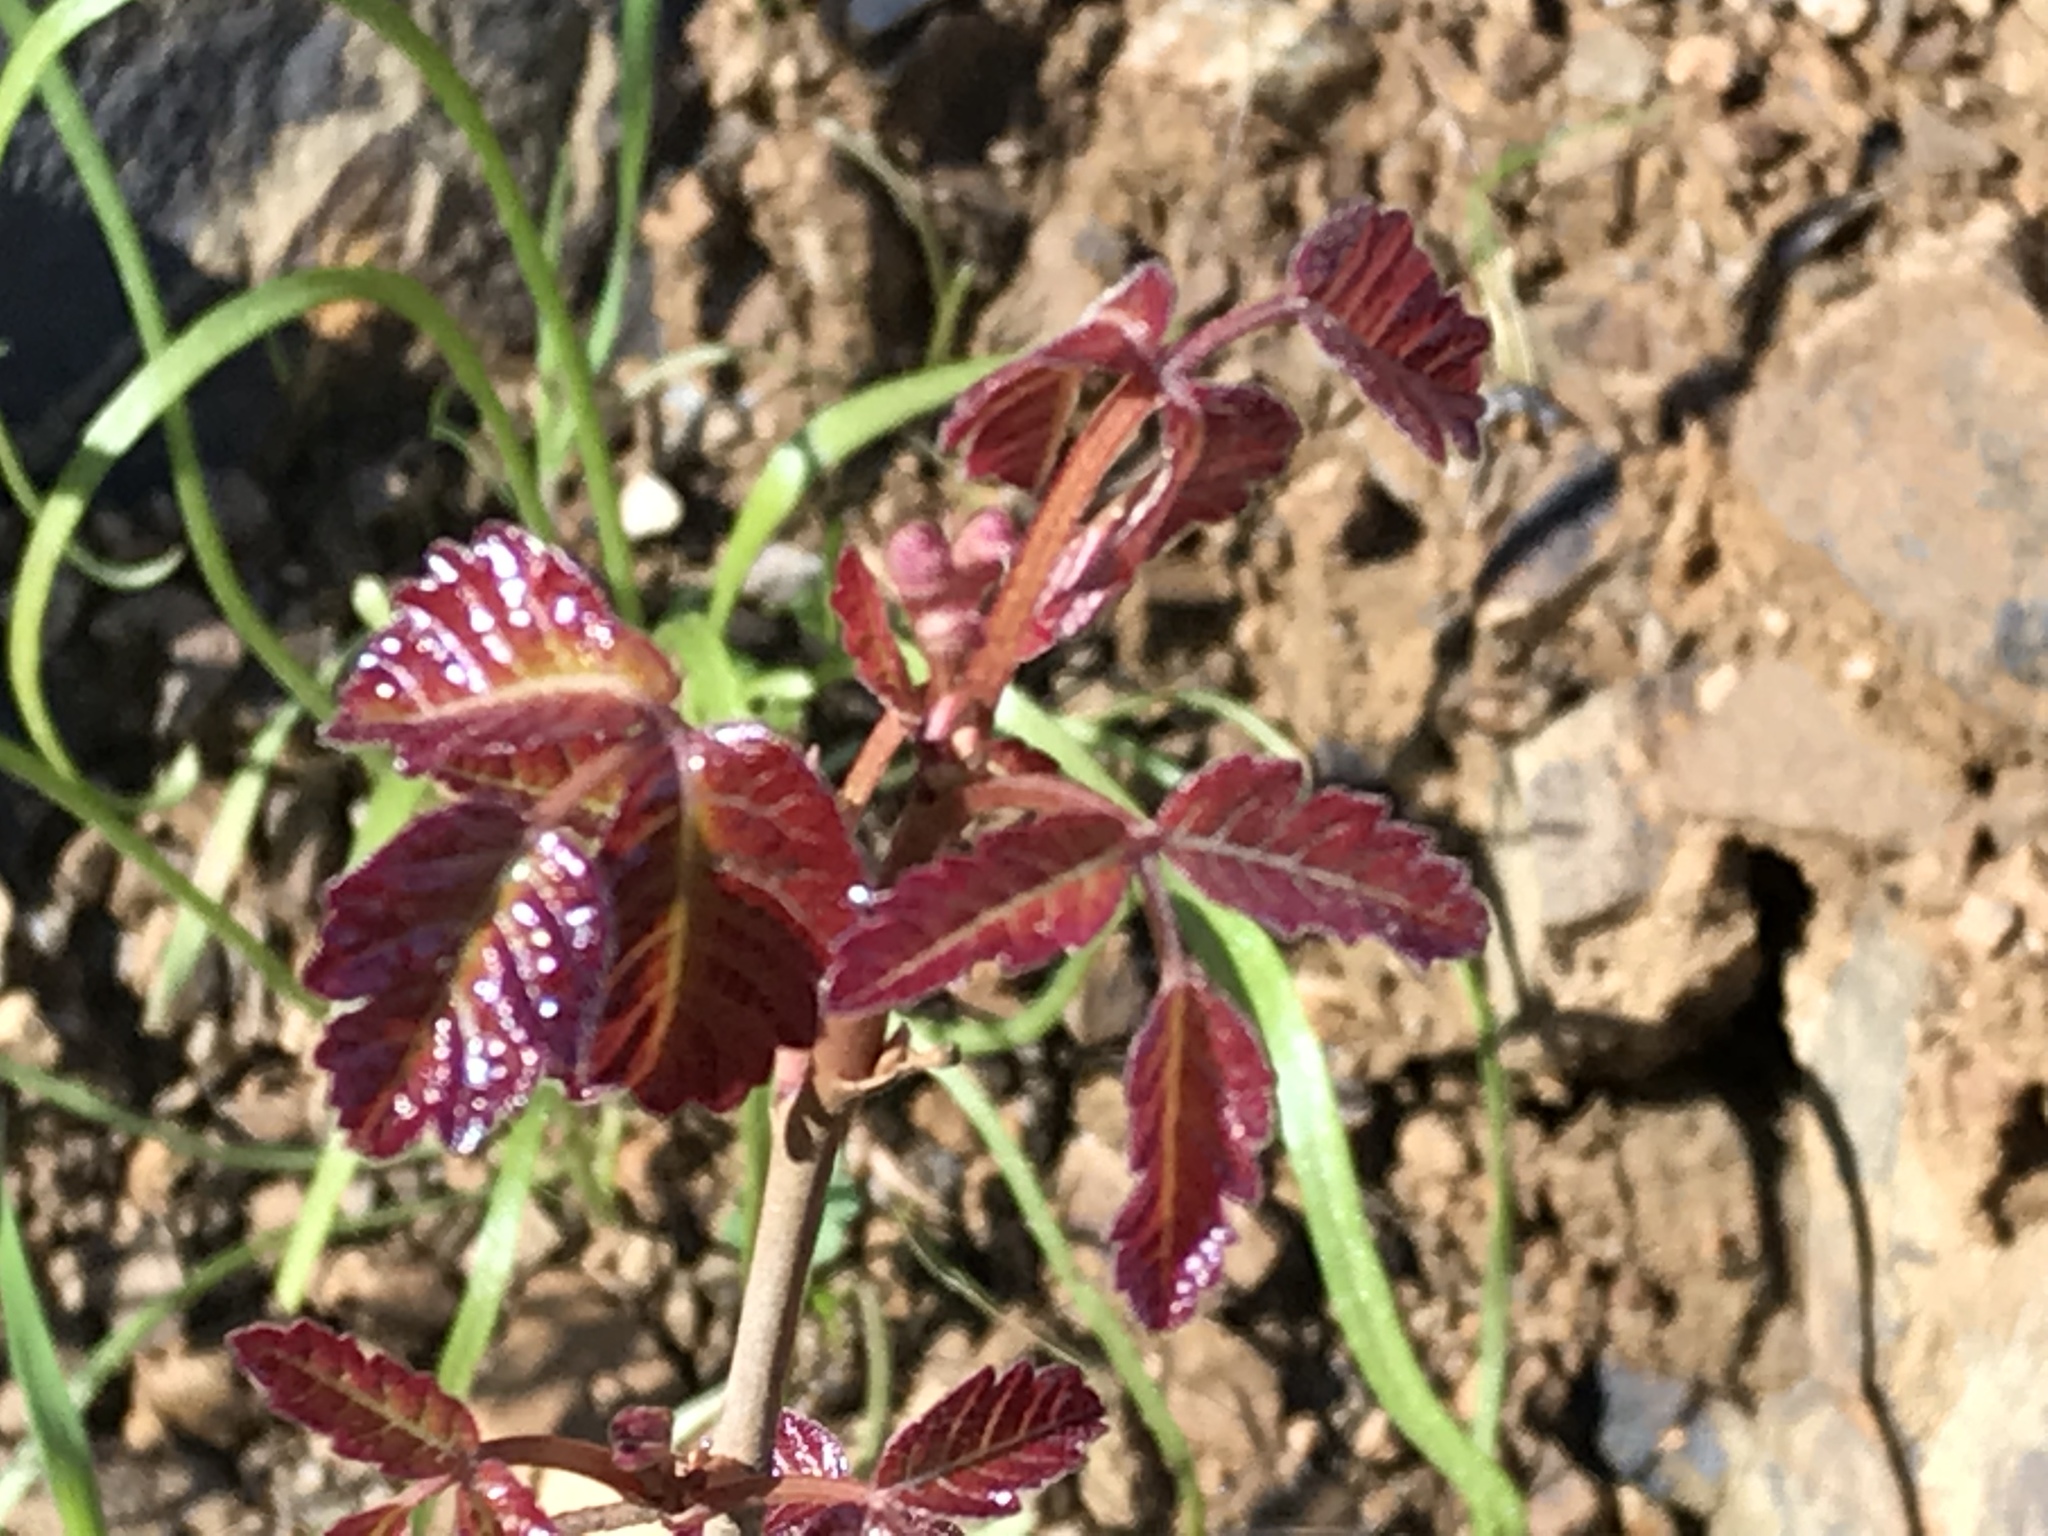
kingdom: Plantae
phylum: Tracheophyta
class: Magnoliopsida
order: Sapindales
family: Anacardiaceae
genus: Toxicodendron
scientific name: Toxicodendron diversilobum
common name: Pacific poison-oak
